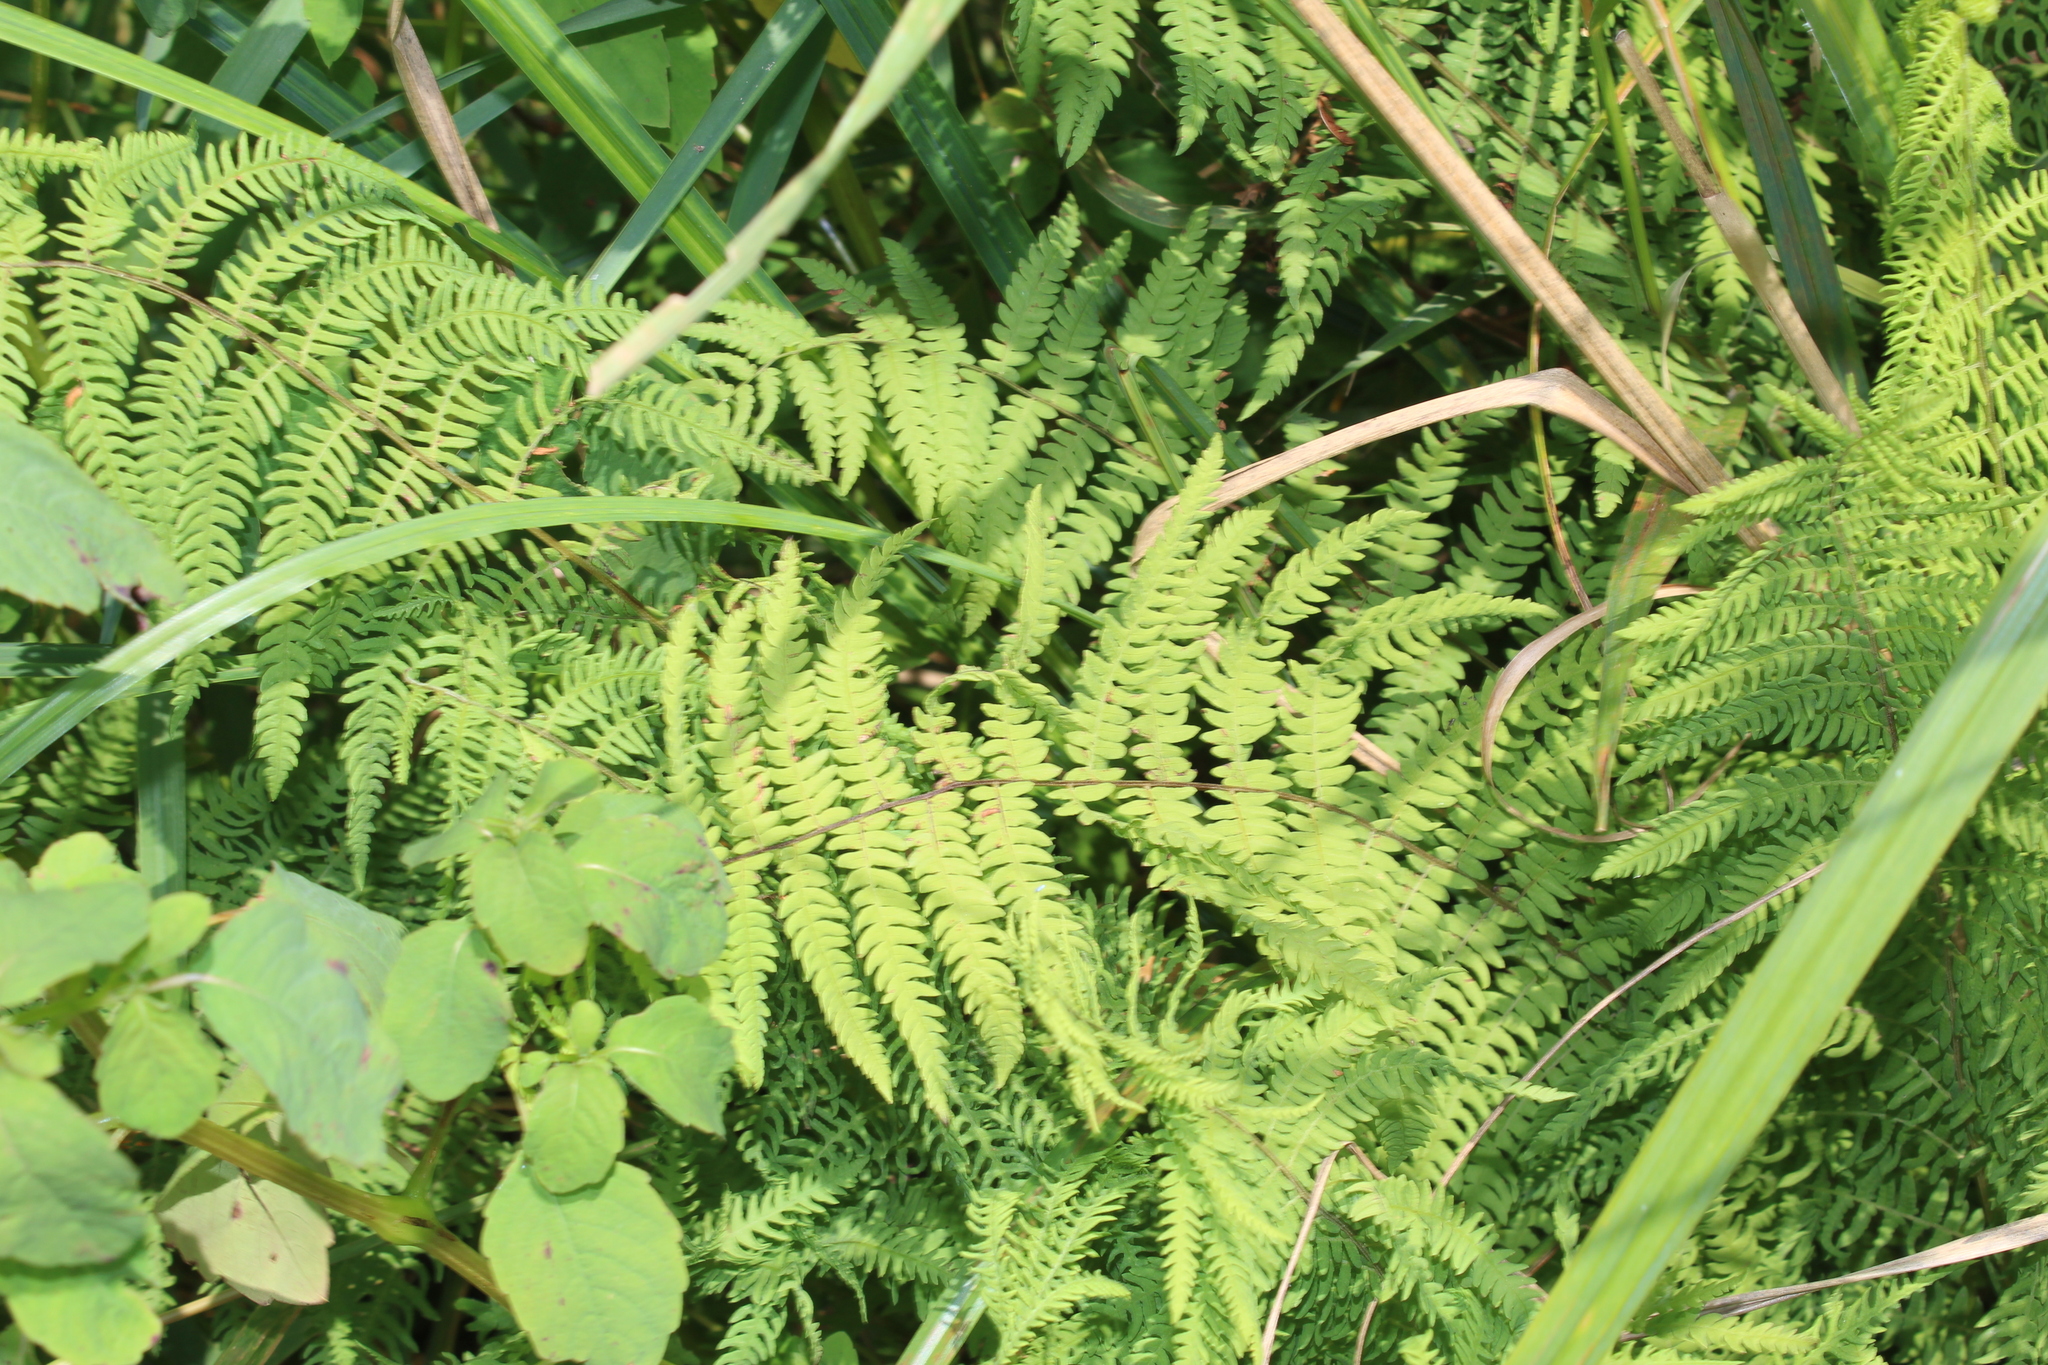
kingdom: Plantae
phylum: Tracheophyta
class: Polypodiopsida
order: Polypodiales
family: Thelypteridaceae
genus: Thelypteris
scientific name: Thelypteris palustris
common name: Marsh fern
